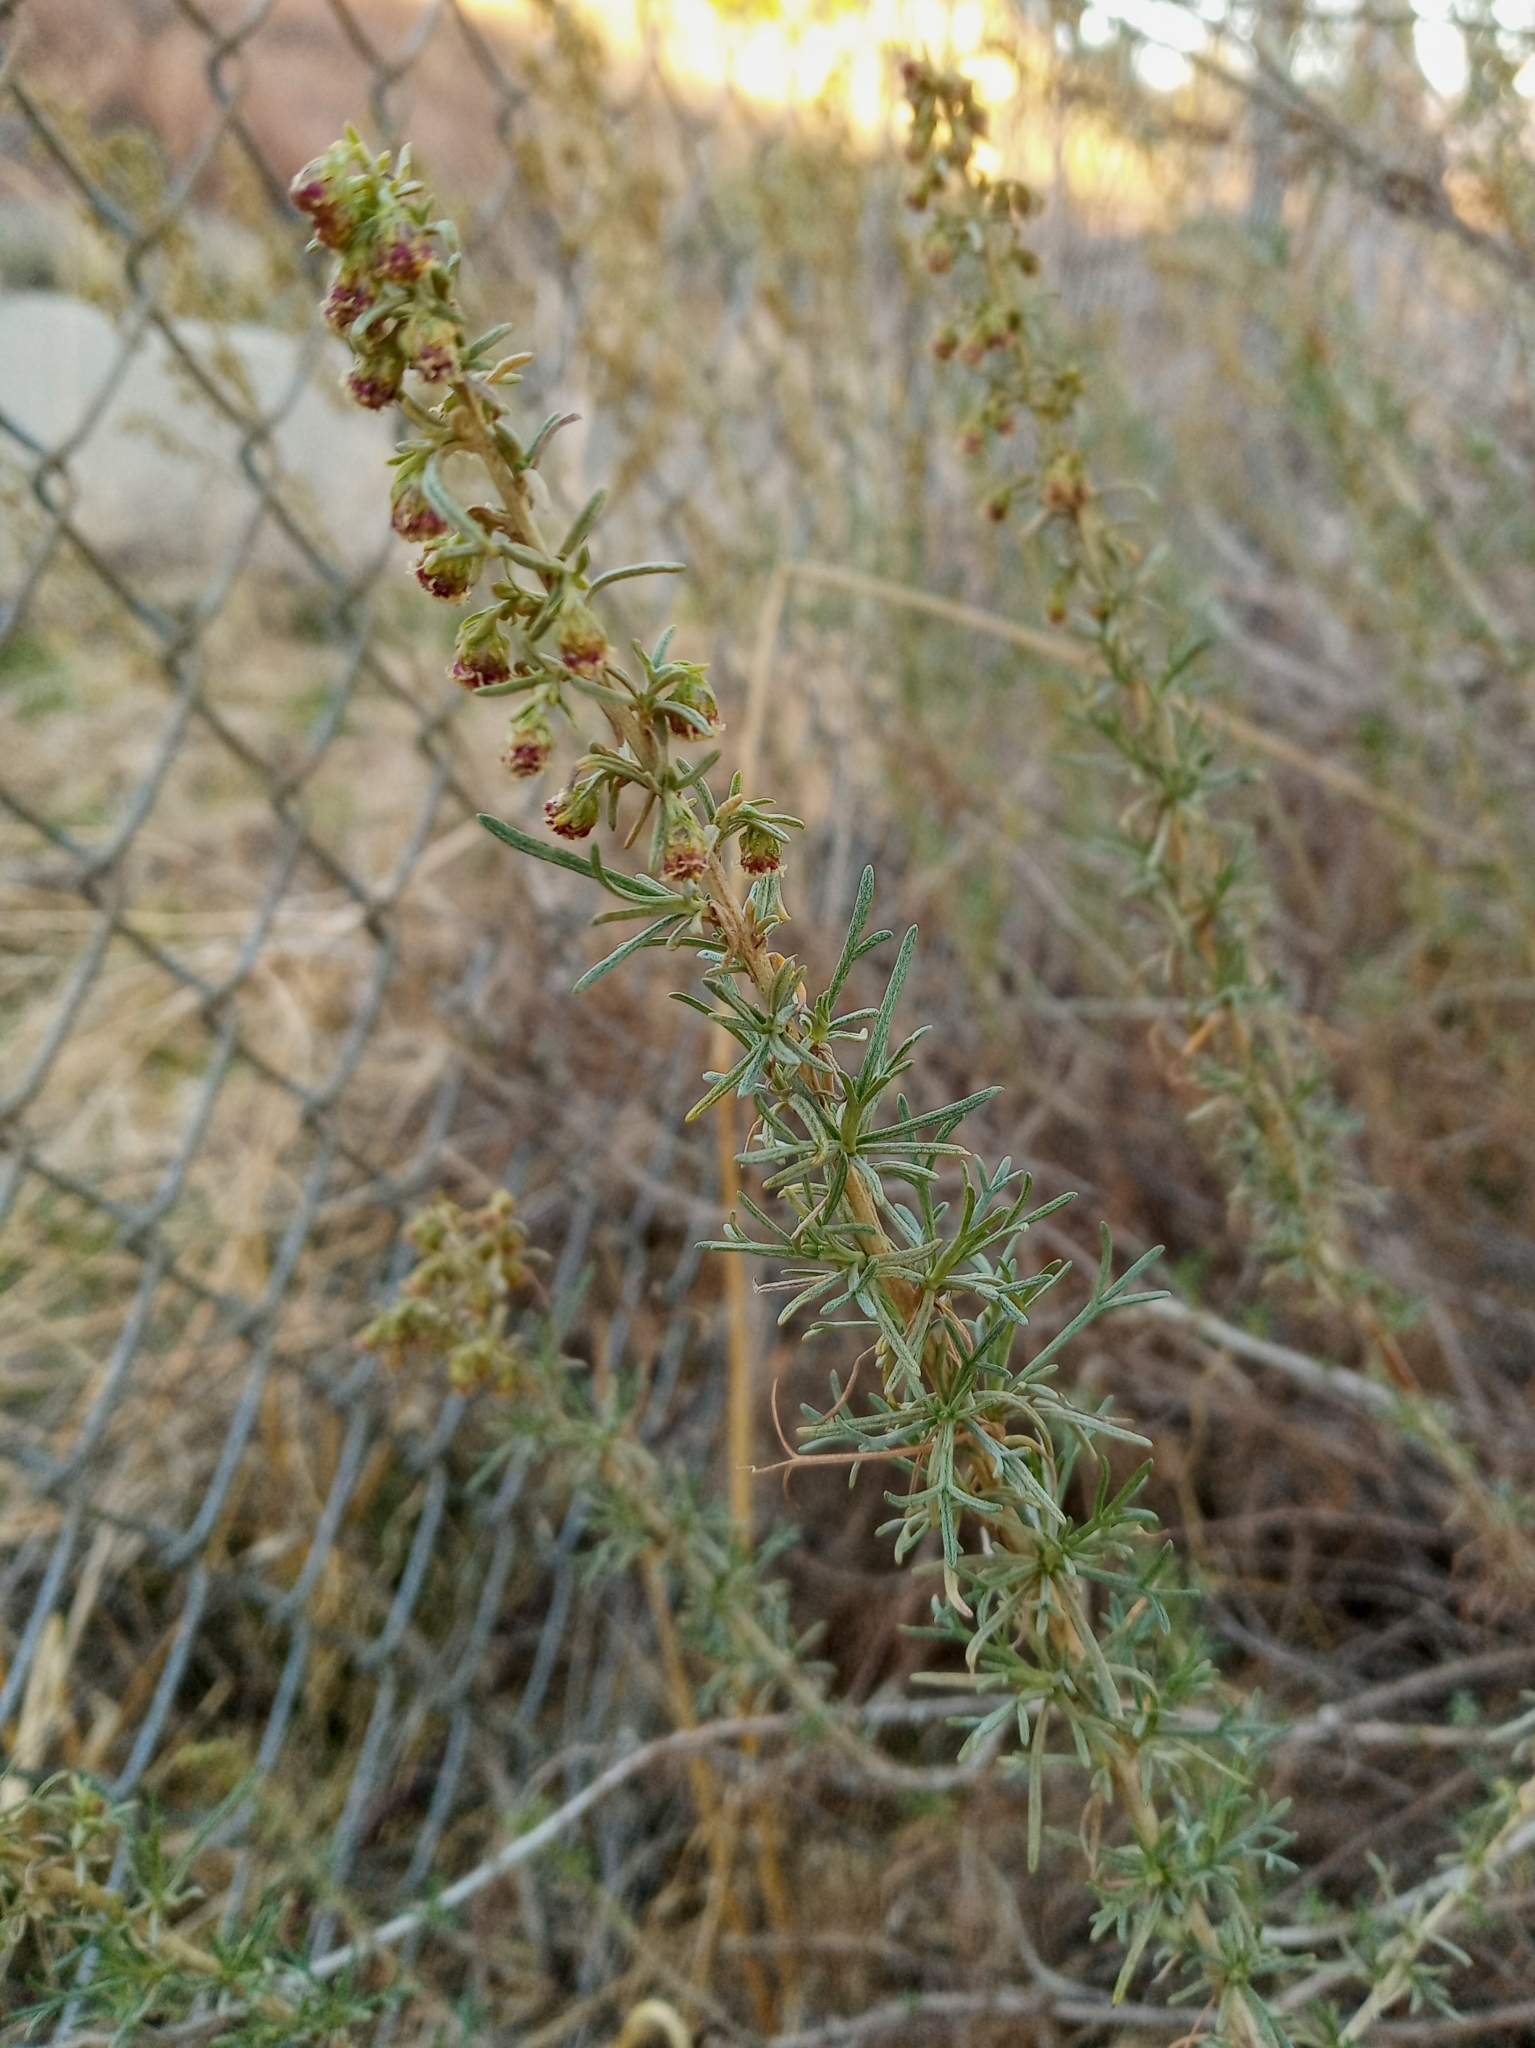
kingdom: Plantae
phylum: Tracheophyta
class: Magnoliopsida
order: Asterales
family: Asteraceae
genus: Artemisia
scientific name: Artemisia californica
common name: California sagebrush
